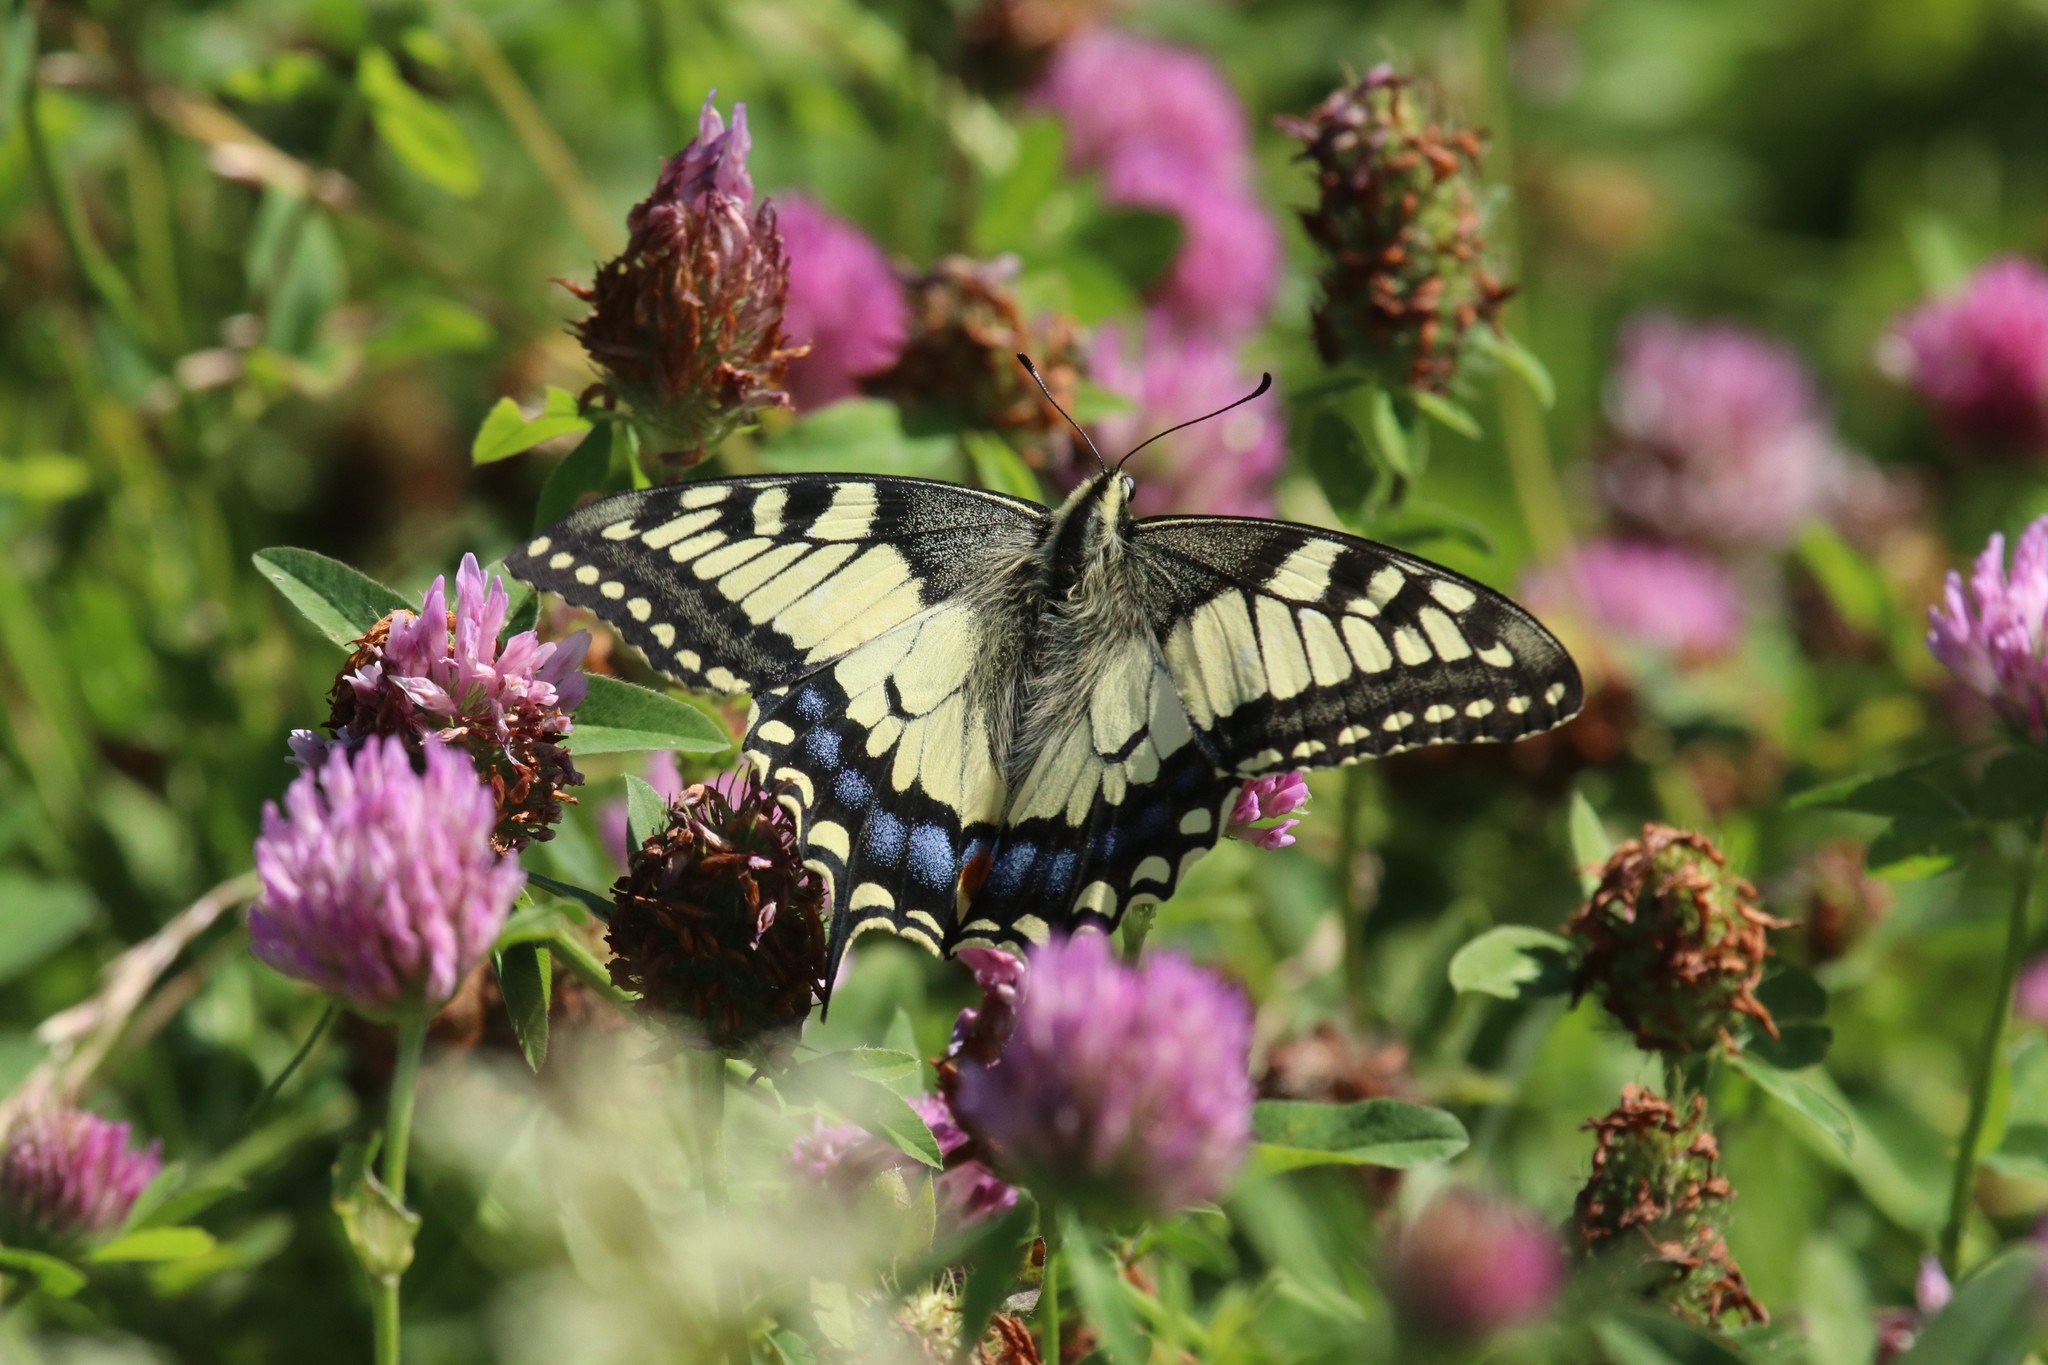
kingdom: Animalia
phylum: Arthropoda
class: Insecta
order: Lepidoptera
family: Papilionidae
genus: Papilio
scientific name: Papilio machaon
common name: Swallowtail
